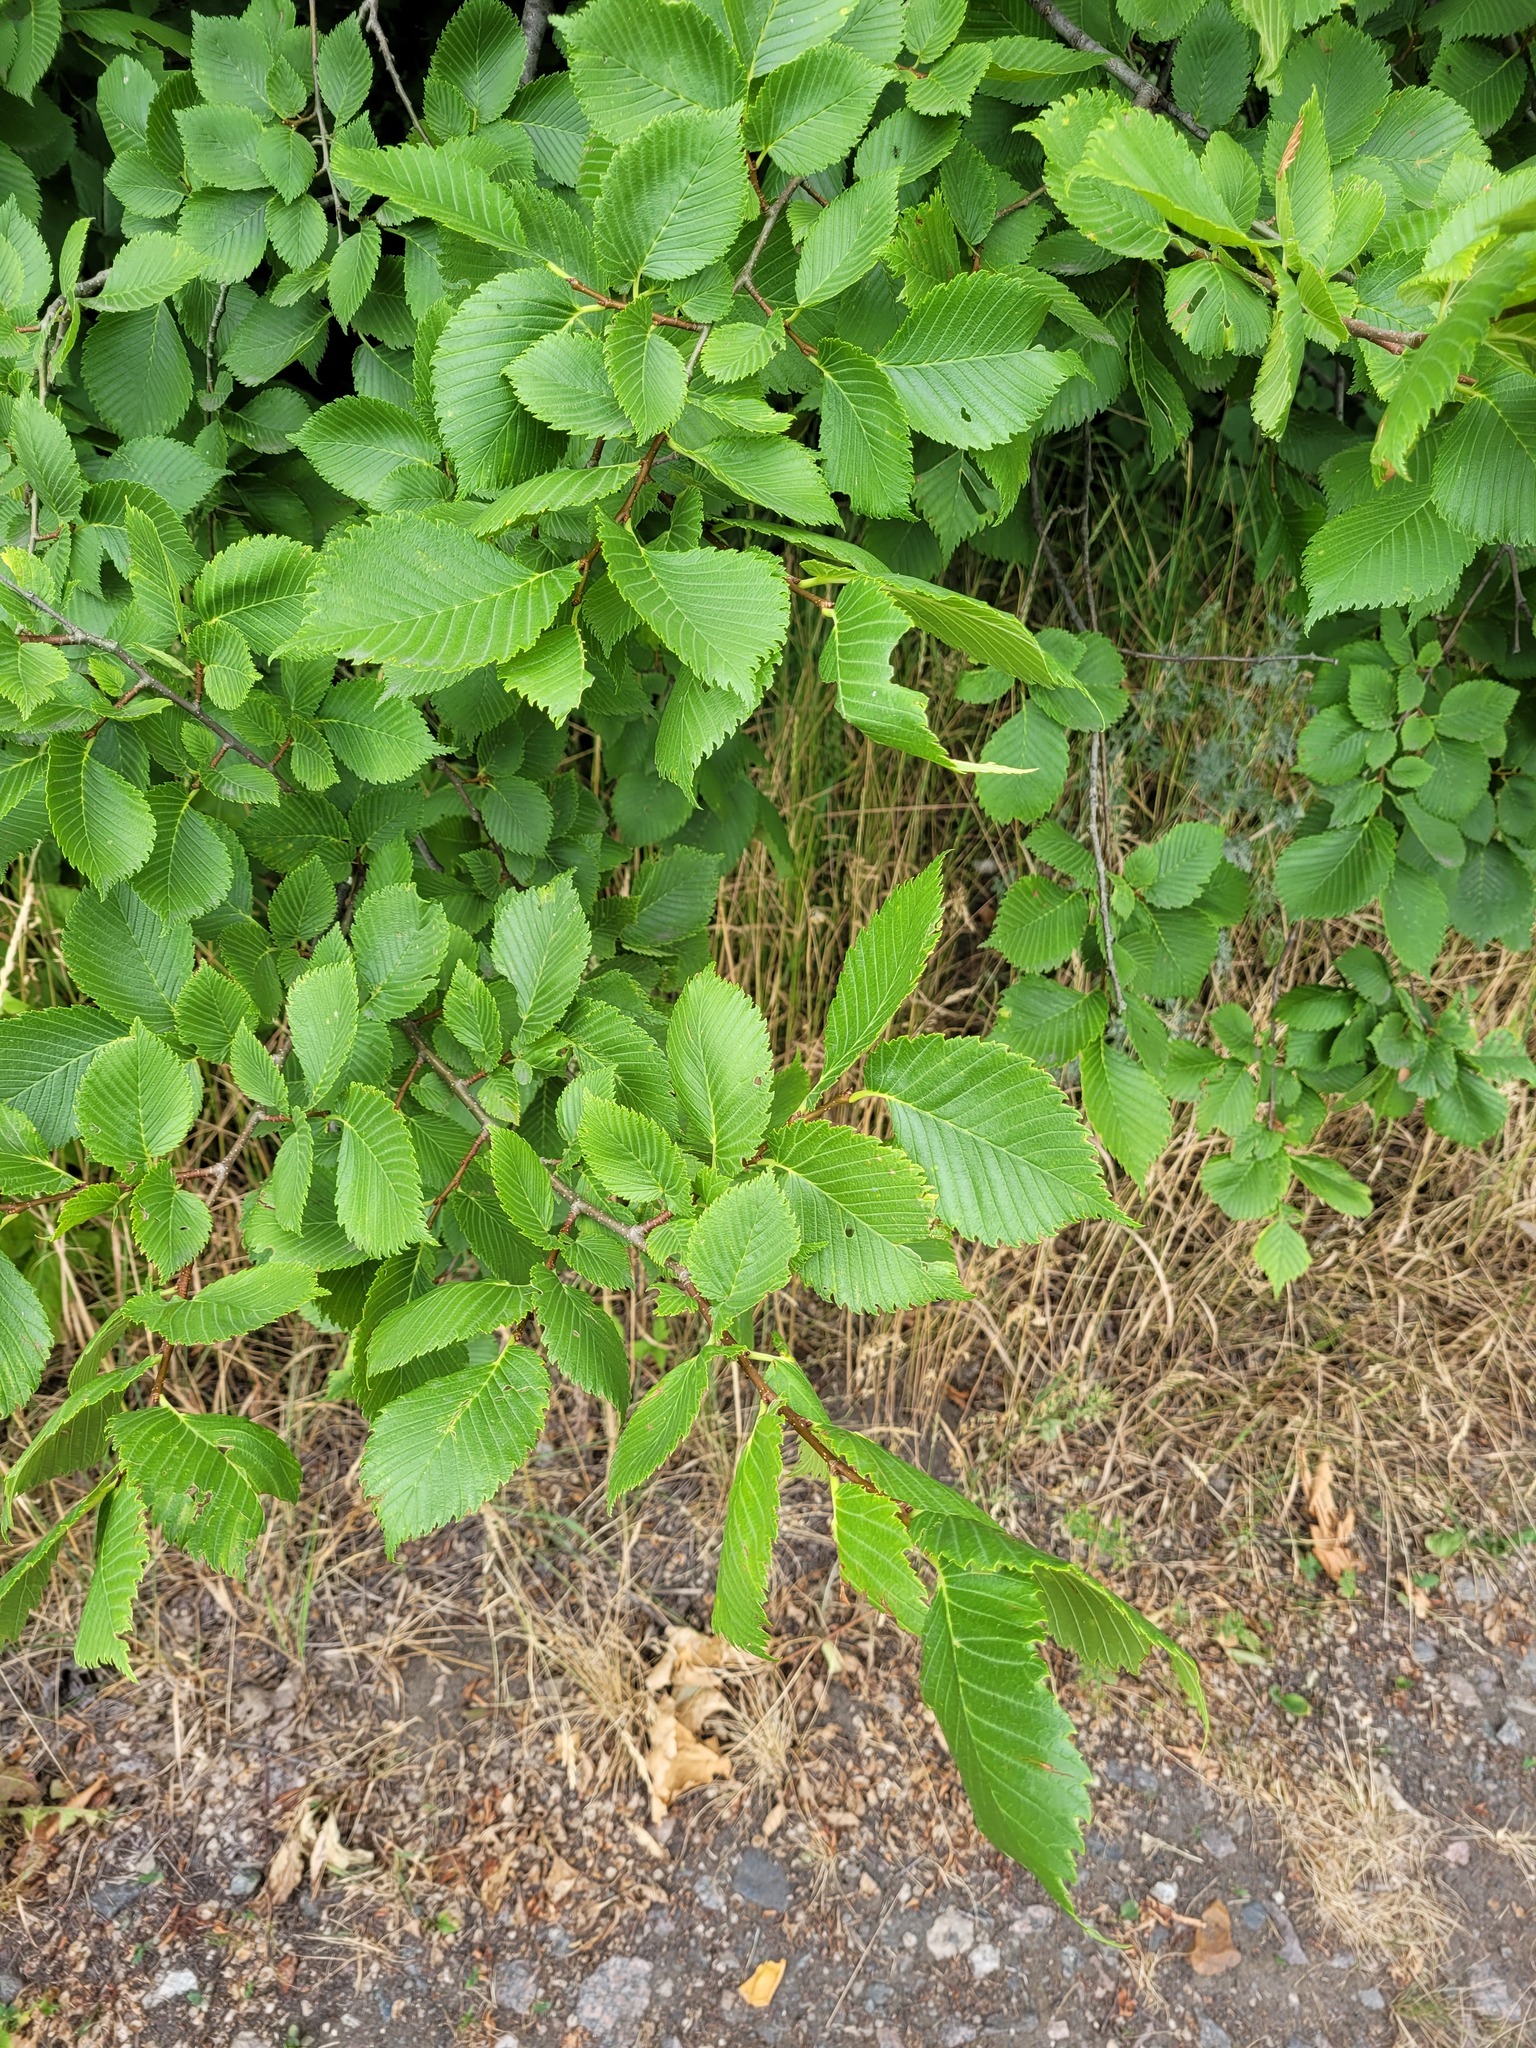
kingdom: Plantae
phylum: Tracheophyta
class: Magnoliopsida
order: Rosales
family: Ulmaceae
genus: Ulmus
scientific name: Ulmus laevis
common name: European white-elm
